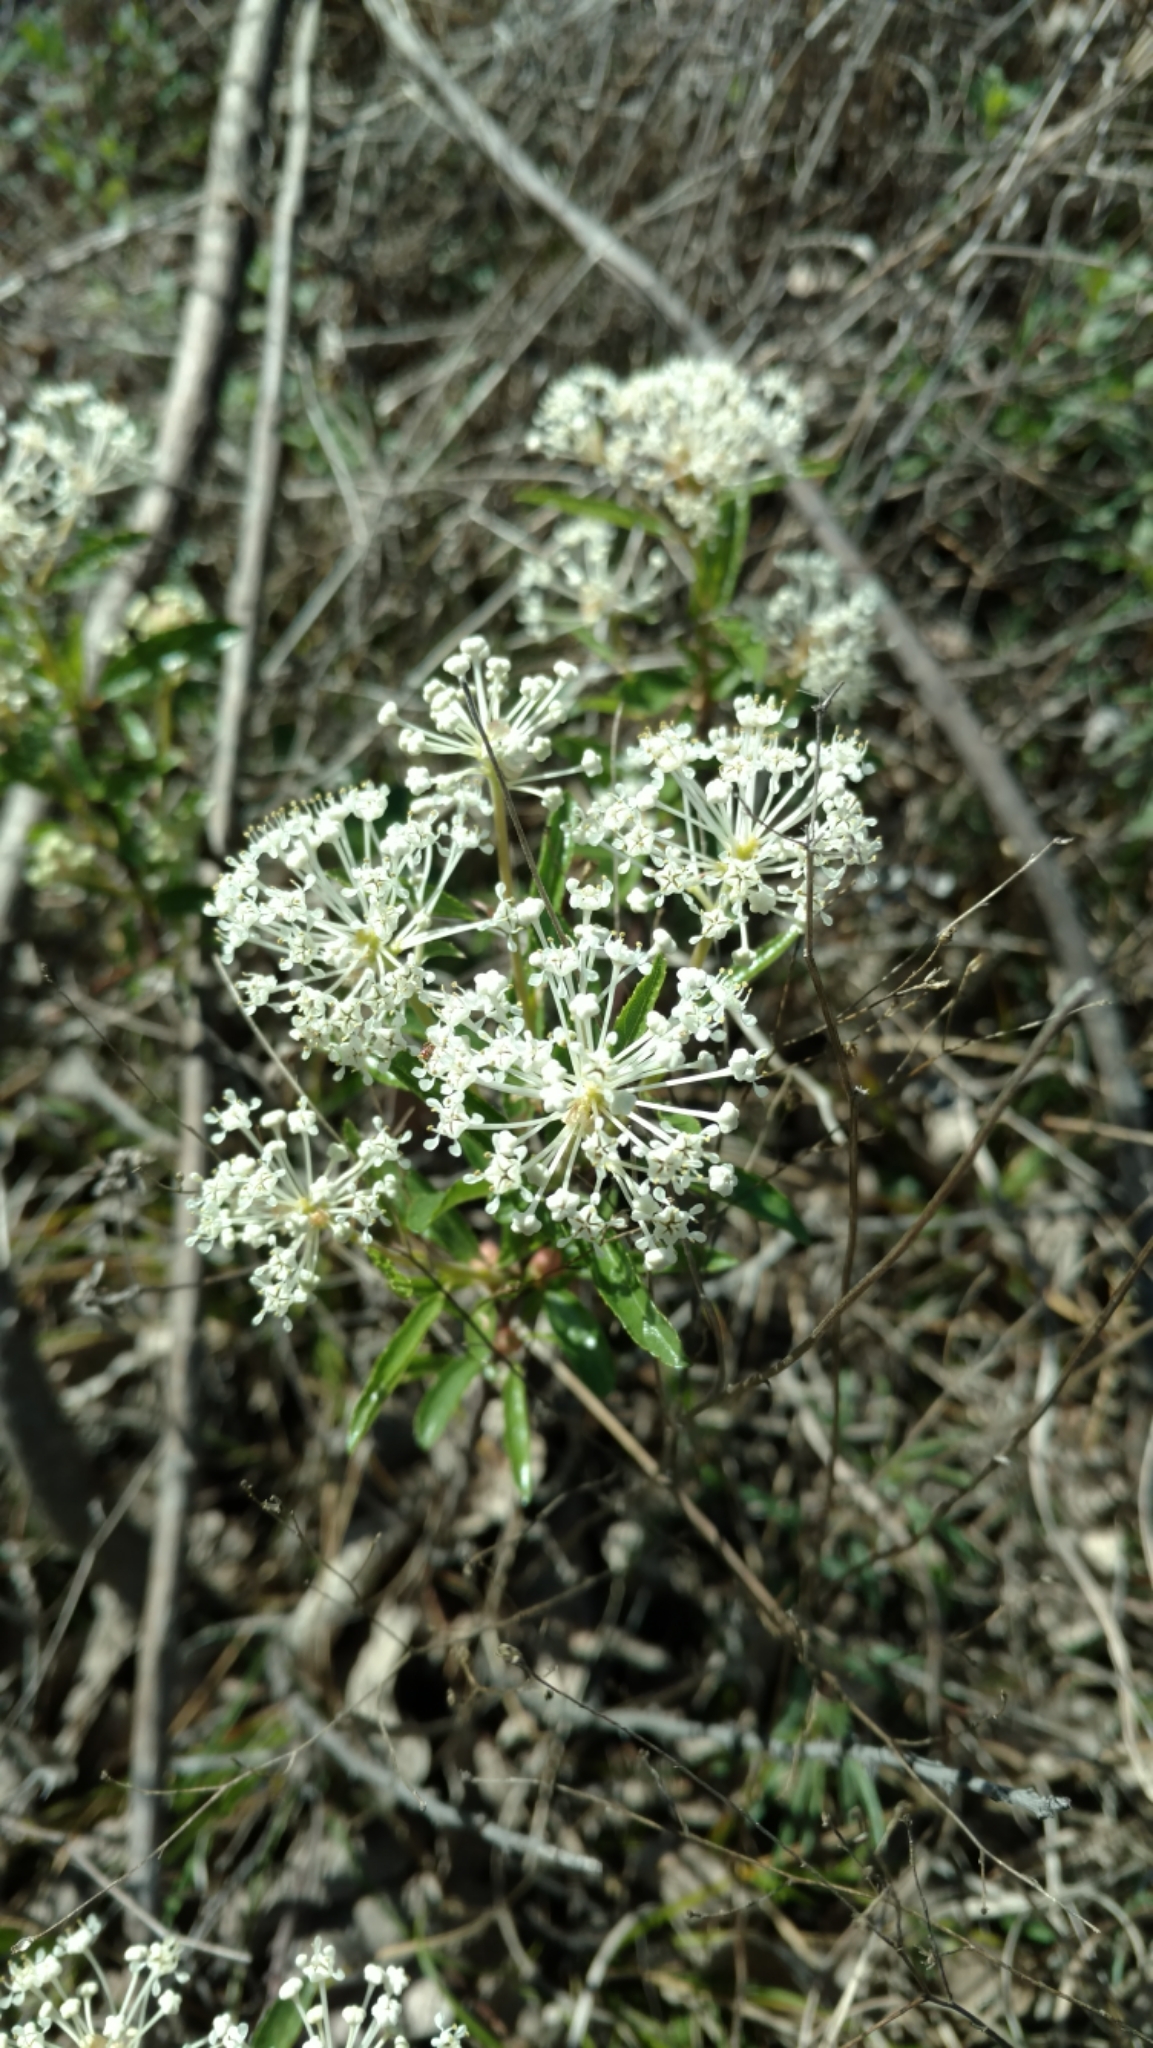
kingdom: Plantae
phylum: Tracheophyta
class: Magnoliopsida
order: Rosales
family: Rhamnaceae
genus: Ceanothus
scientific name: Ceanothus herbaceus
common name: Inland ceanothus
